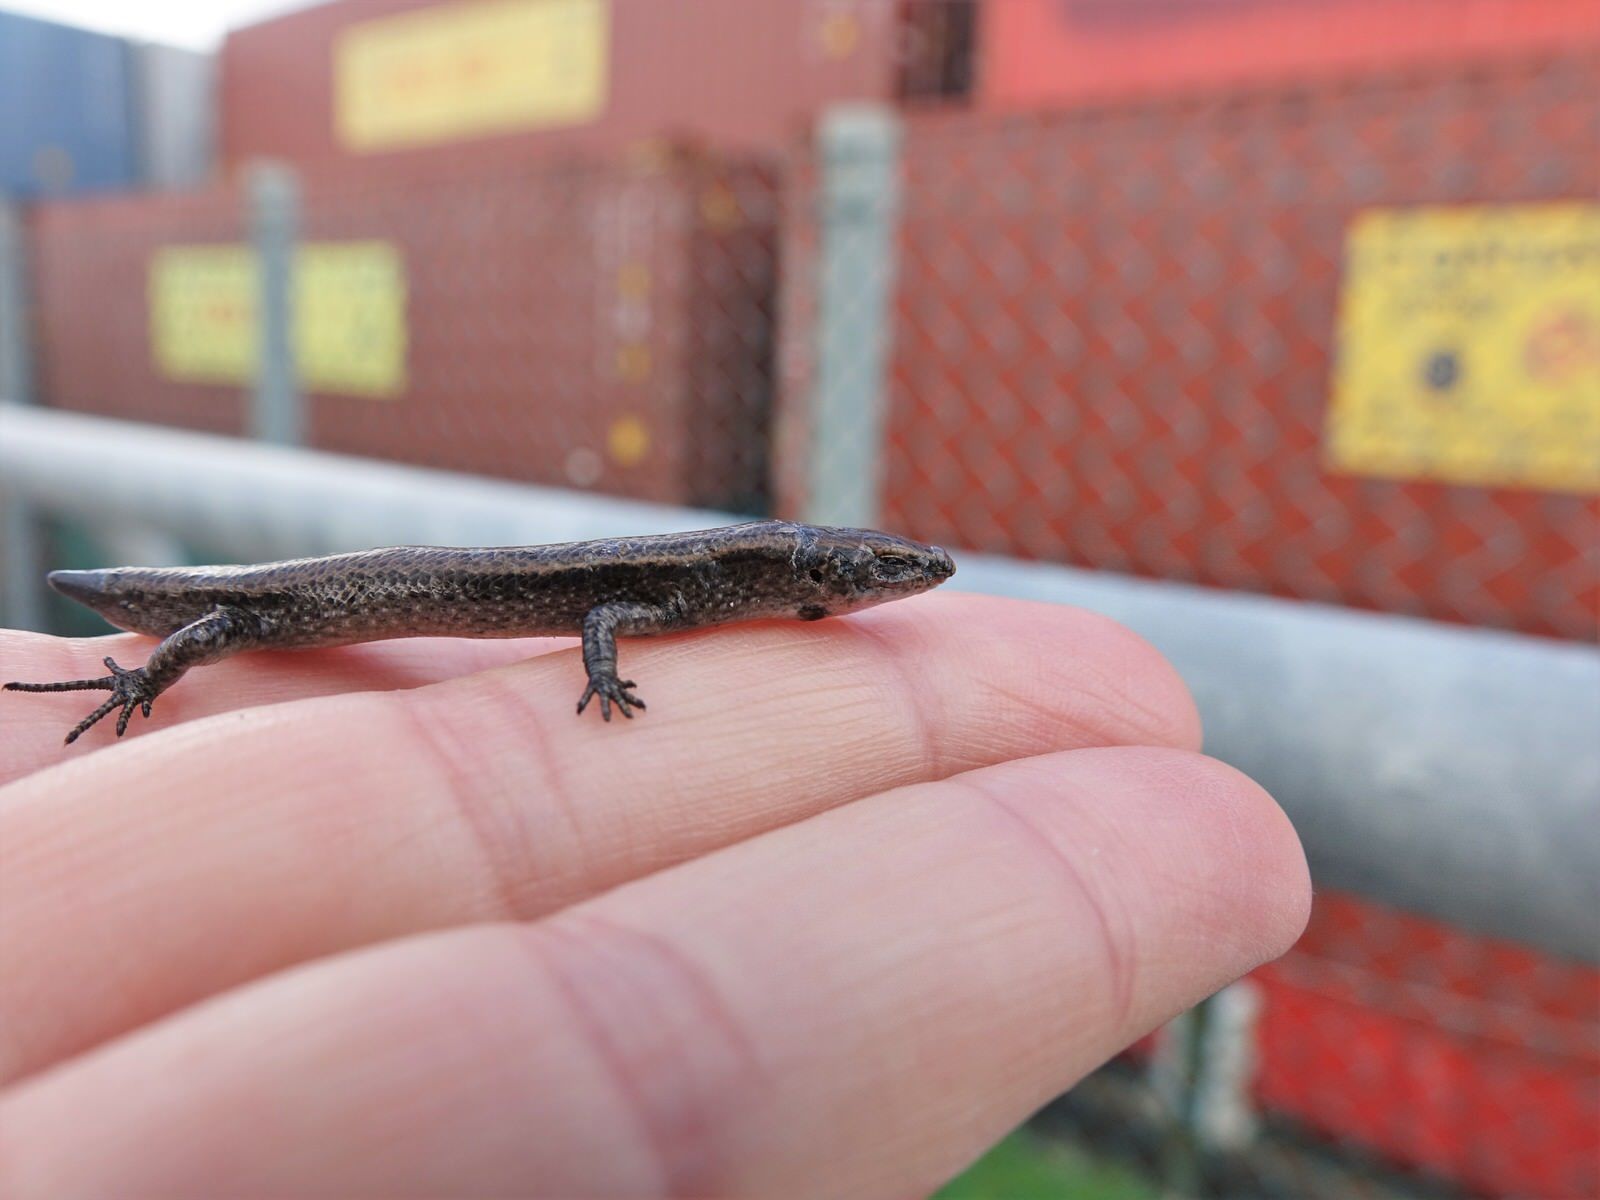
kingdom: Animalia
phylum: Chordata
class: Squamata
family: Scincidae
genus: Lampropholis
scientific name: Lampropholis delicata
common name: Plague skink
